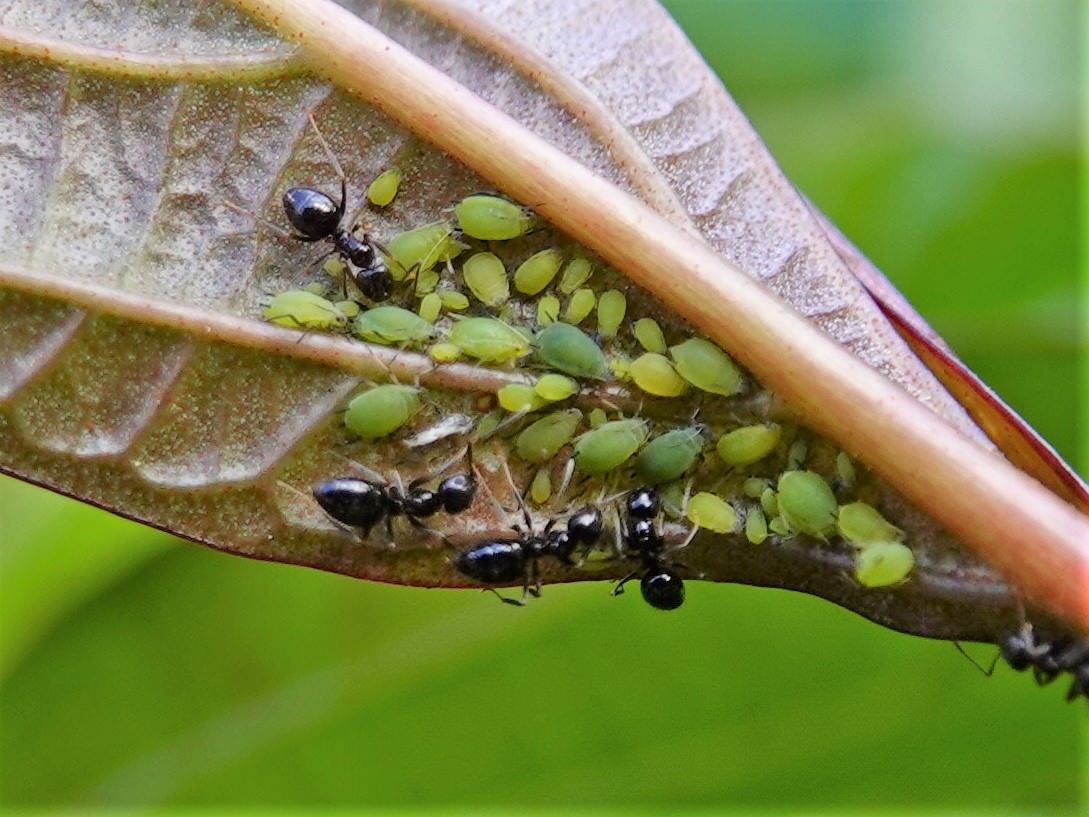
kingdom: Animalia
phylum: Arthropoda
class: Insecta
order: Hemiptera
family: Aphididae
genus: Aphis
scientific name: Aphis spiraecola
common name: Spirea aphid
